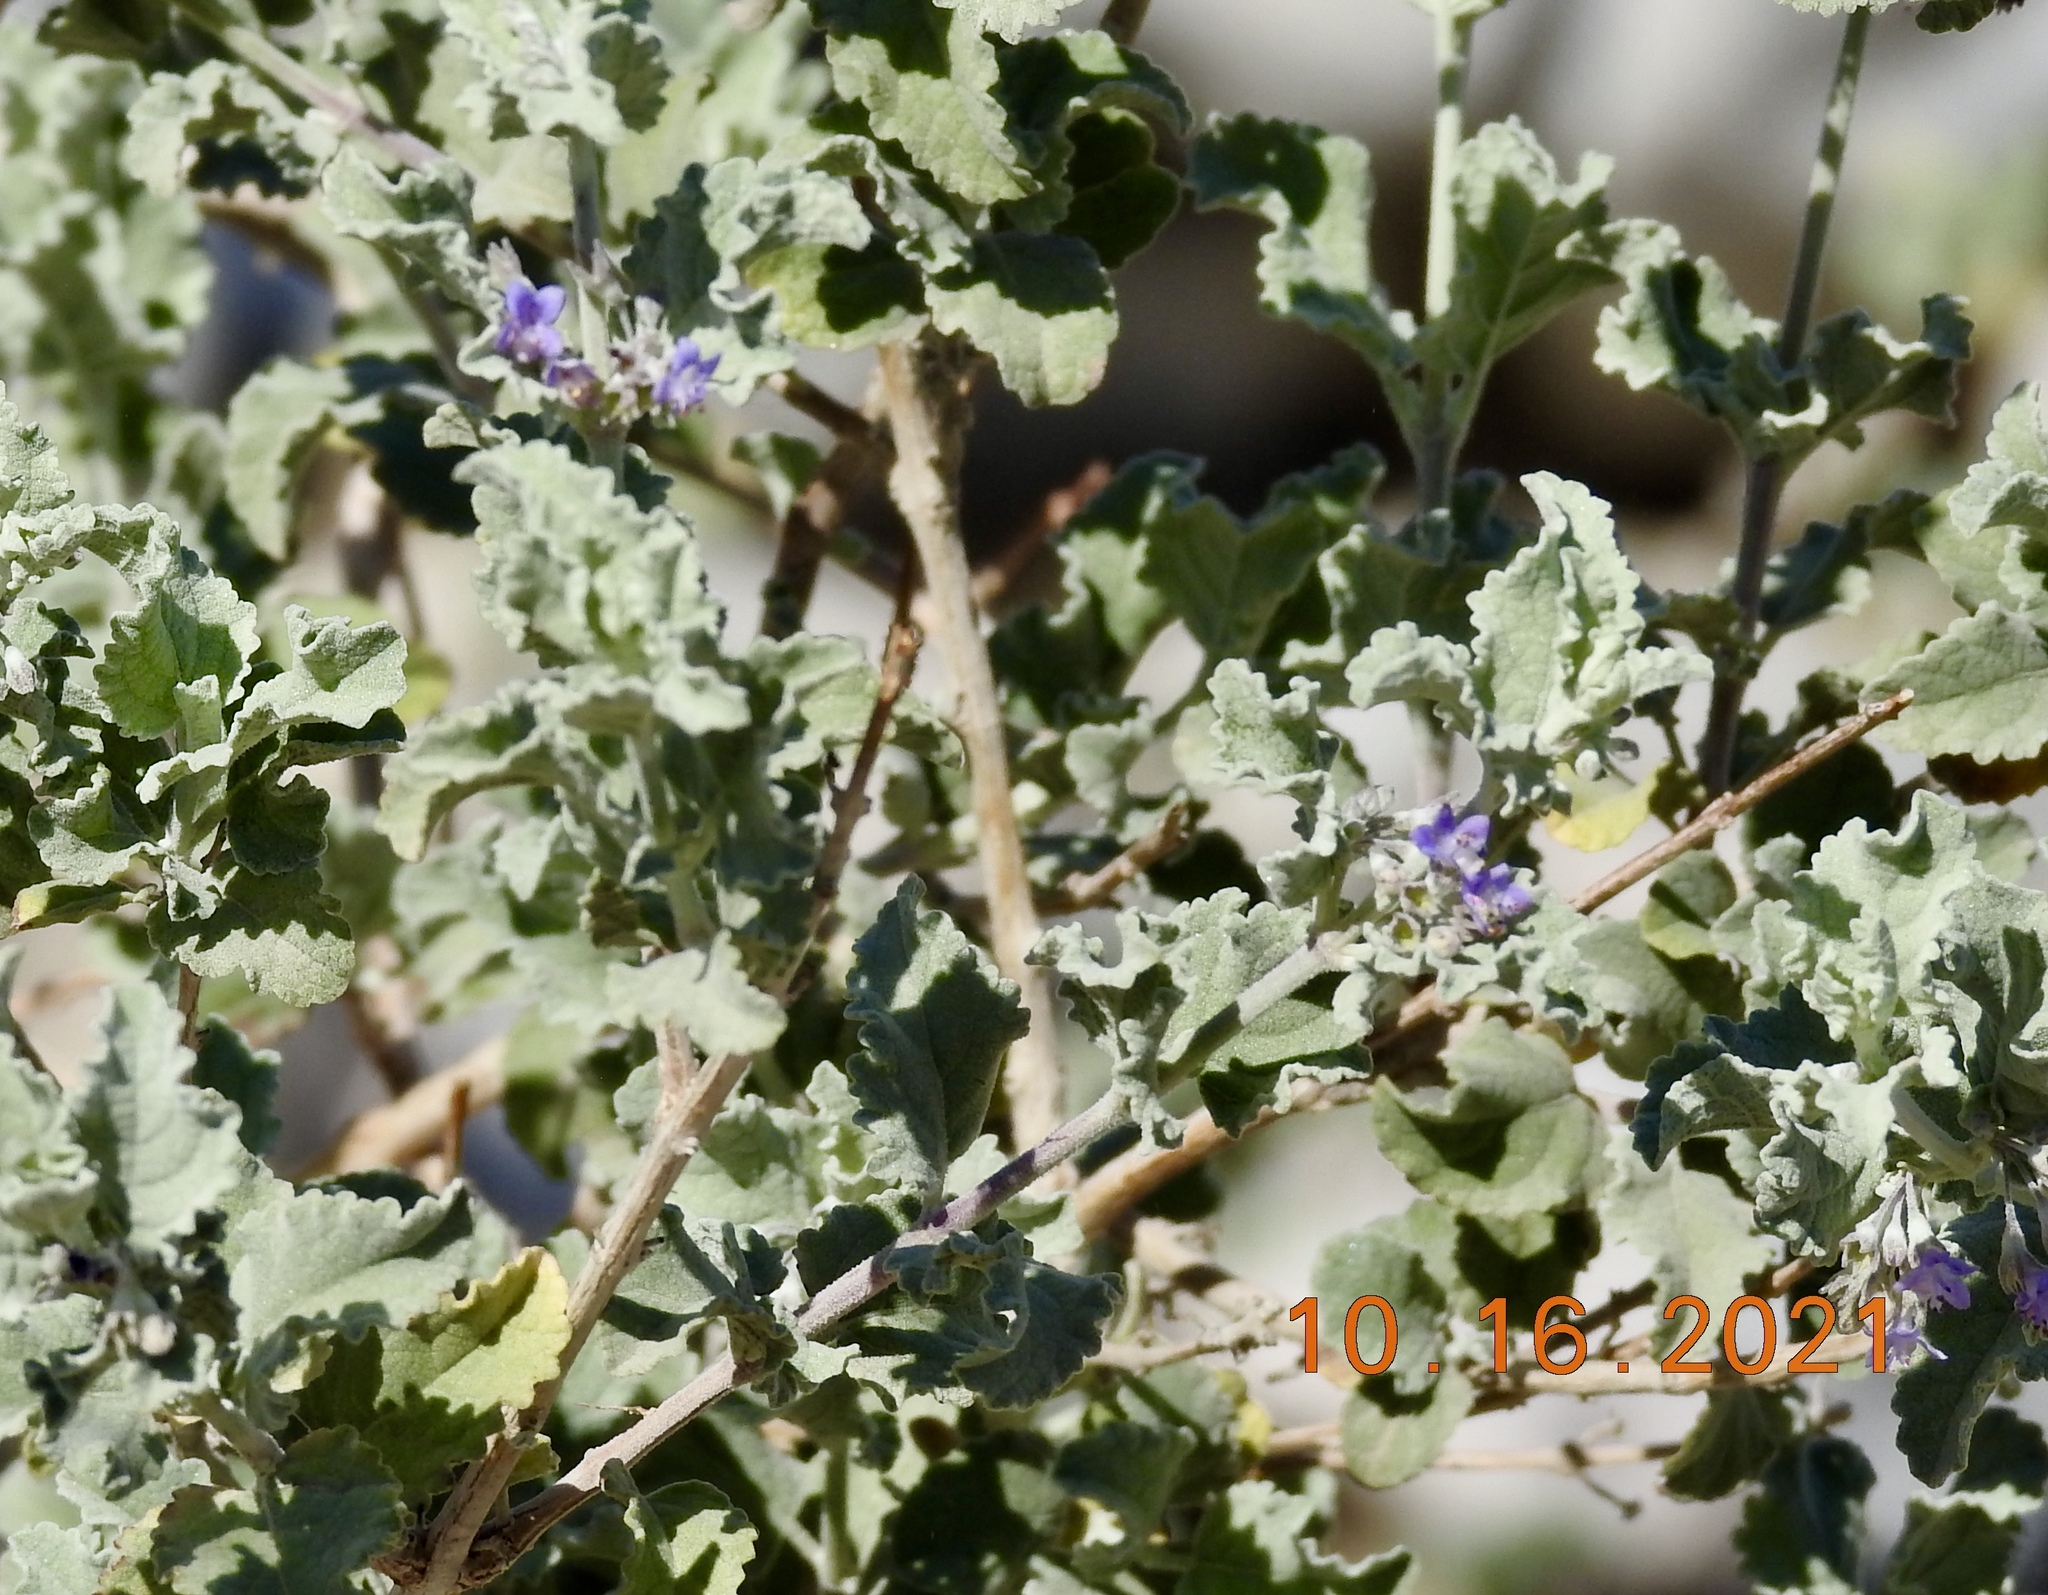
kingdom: Plantae
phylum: Tracheophyta
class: Magnoliopsida
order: Lamiales
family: Lamiaceae
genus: Condea
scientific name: Condea emoryi
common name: Chia
